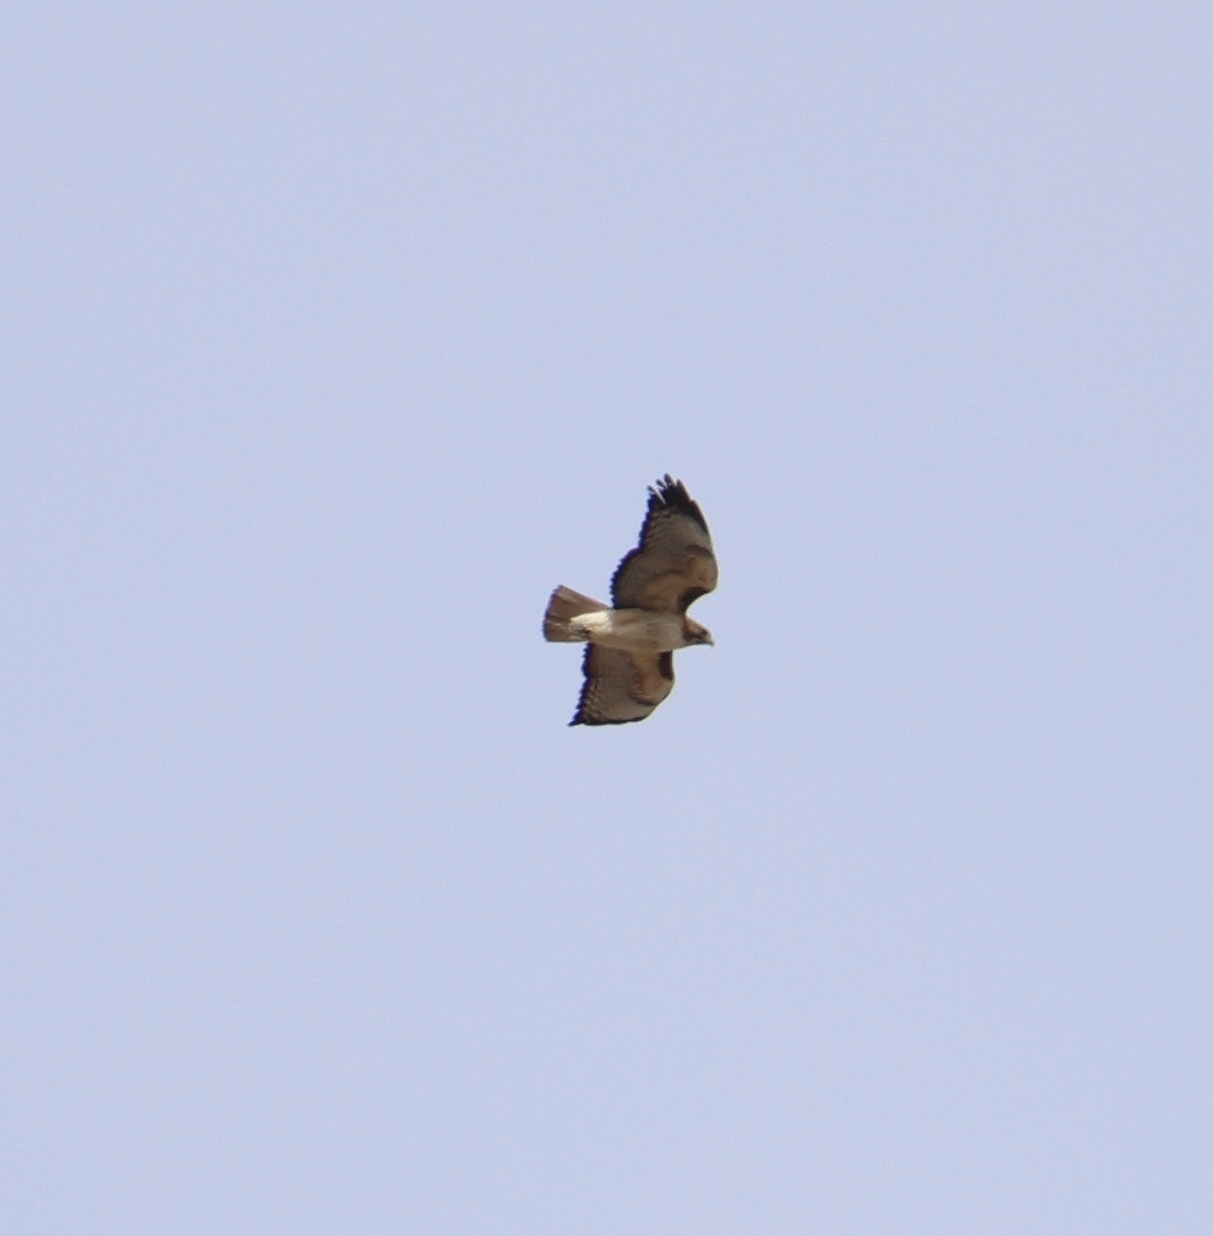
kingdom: Animalia
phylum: Chordata
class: Aves
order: Accipitriformes
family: Accipitridae
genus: Buteo
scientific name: Buteo jamaicensis
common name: Red-tailed hawk
